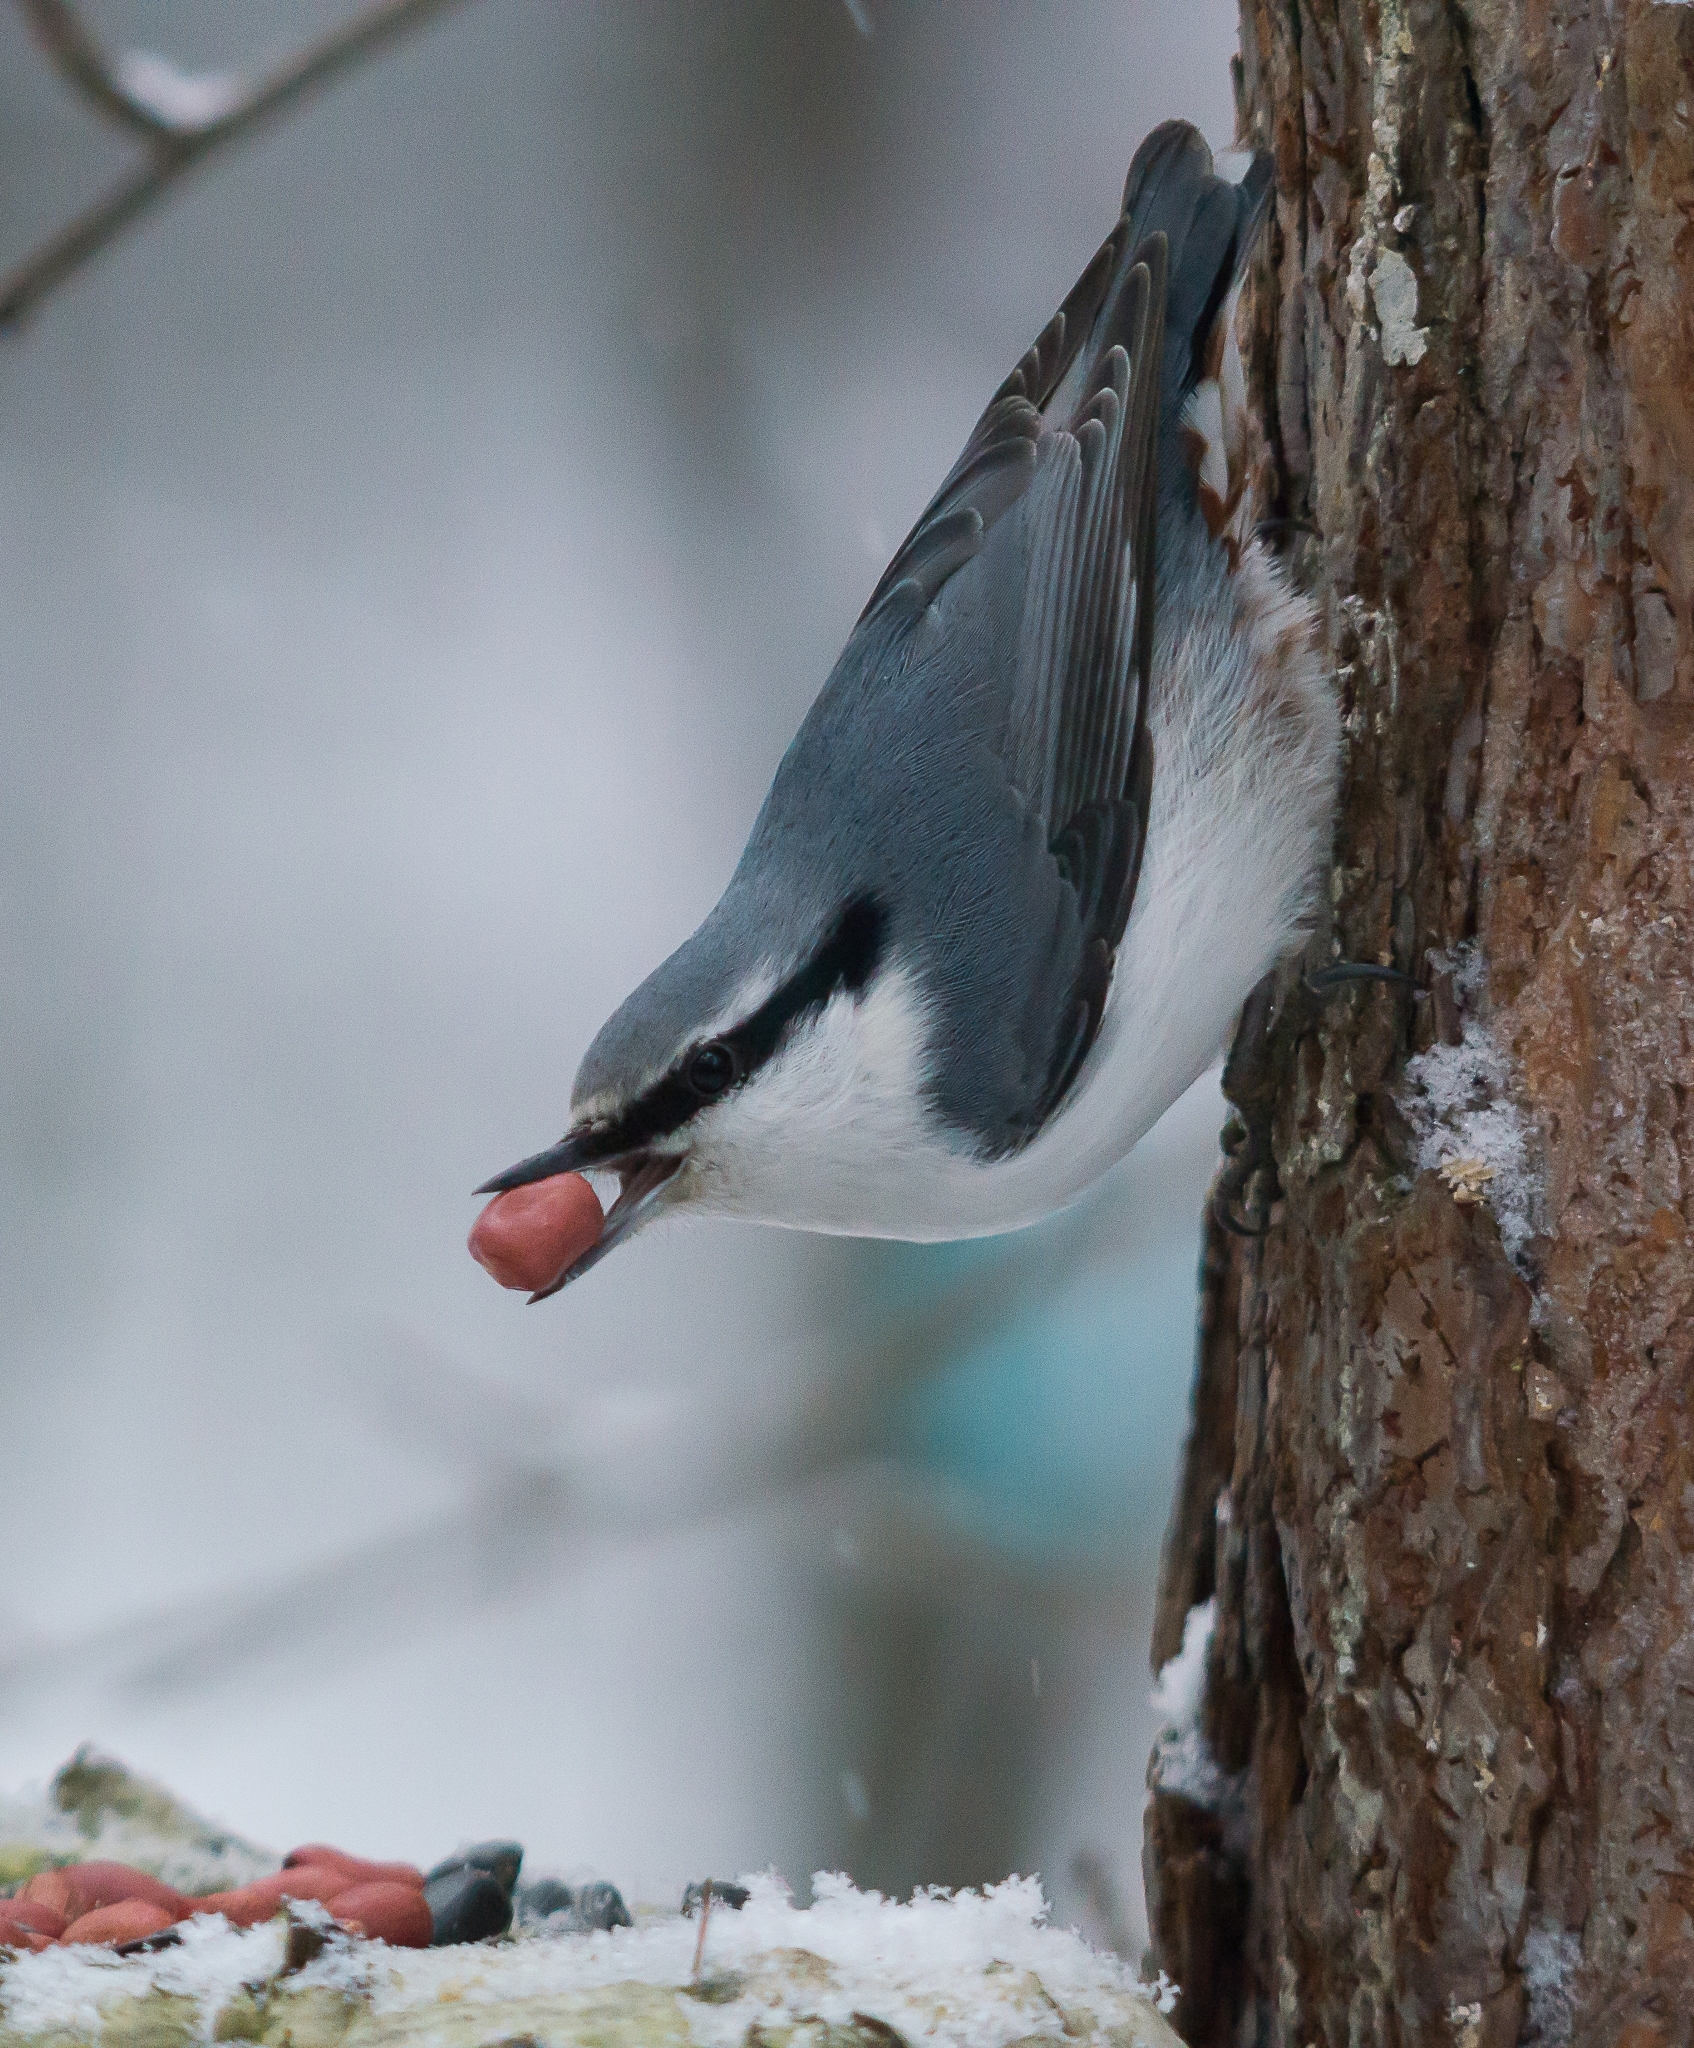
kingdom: Animalia
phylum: Chordata
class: Aves
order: Passeriformes
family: Sittidae
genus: Sitta
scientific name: Sitta europaea
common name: Eurasian nuthatch
